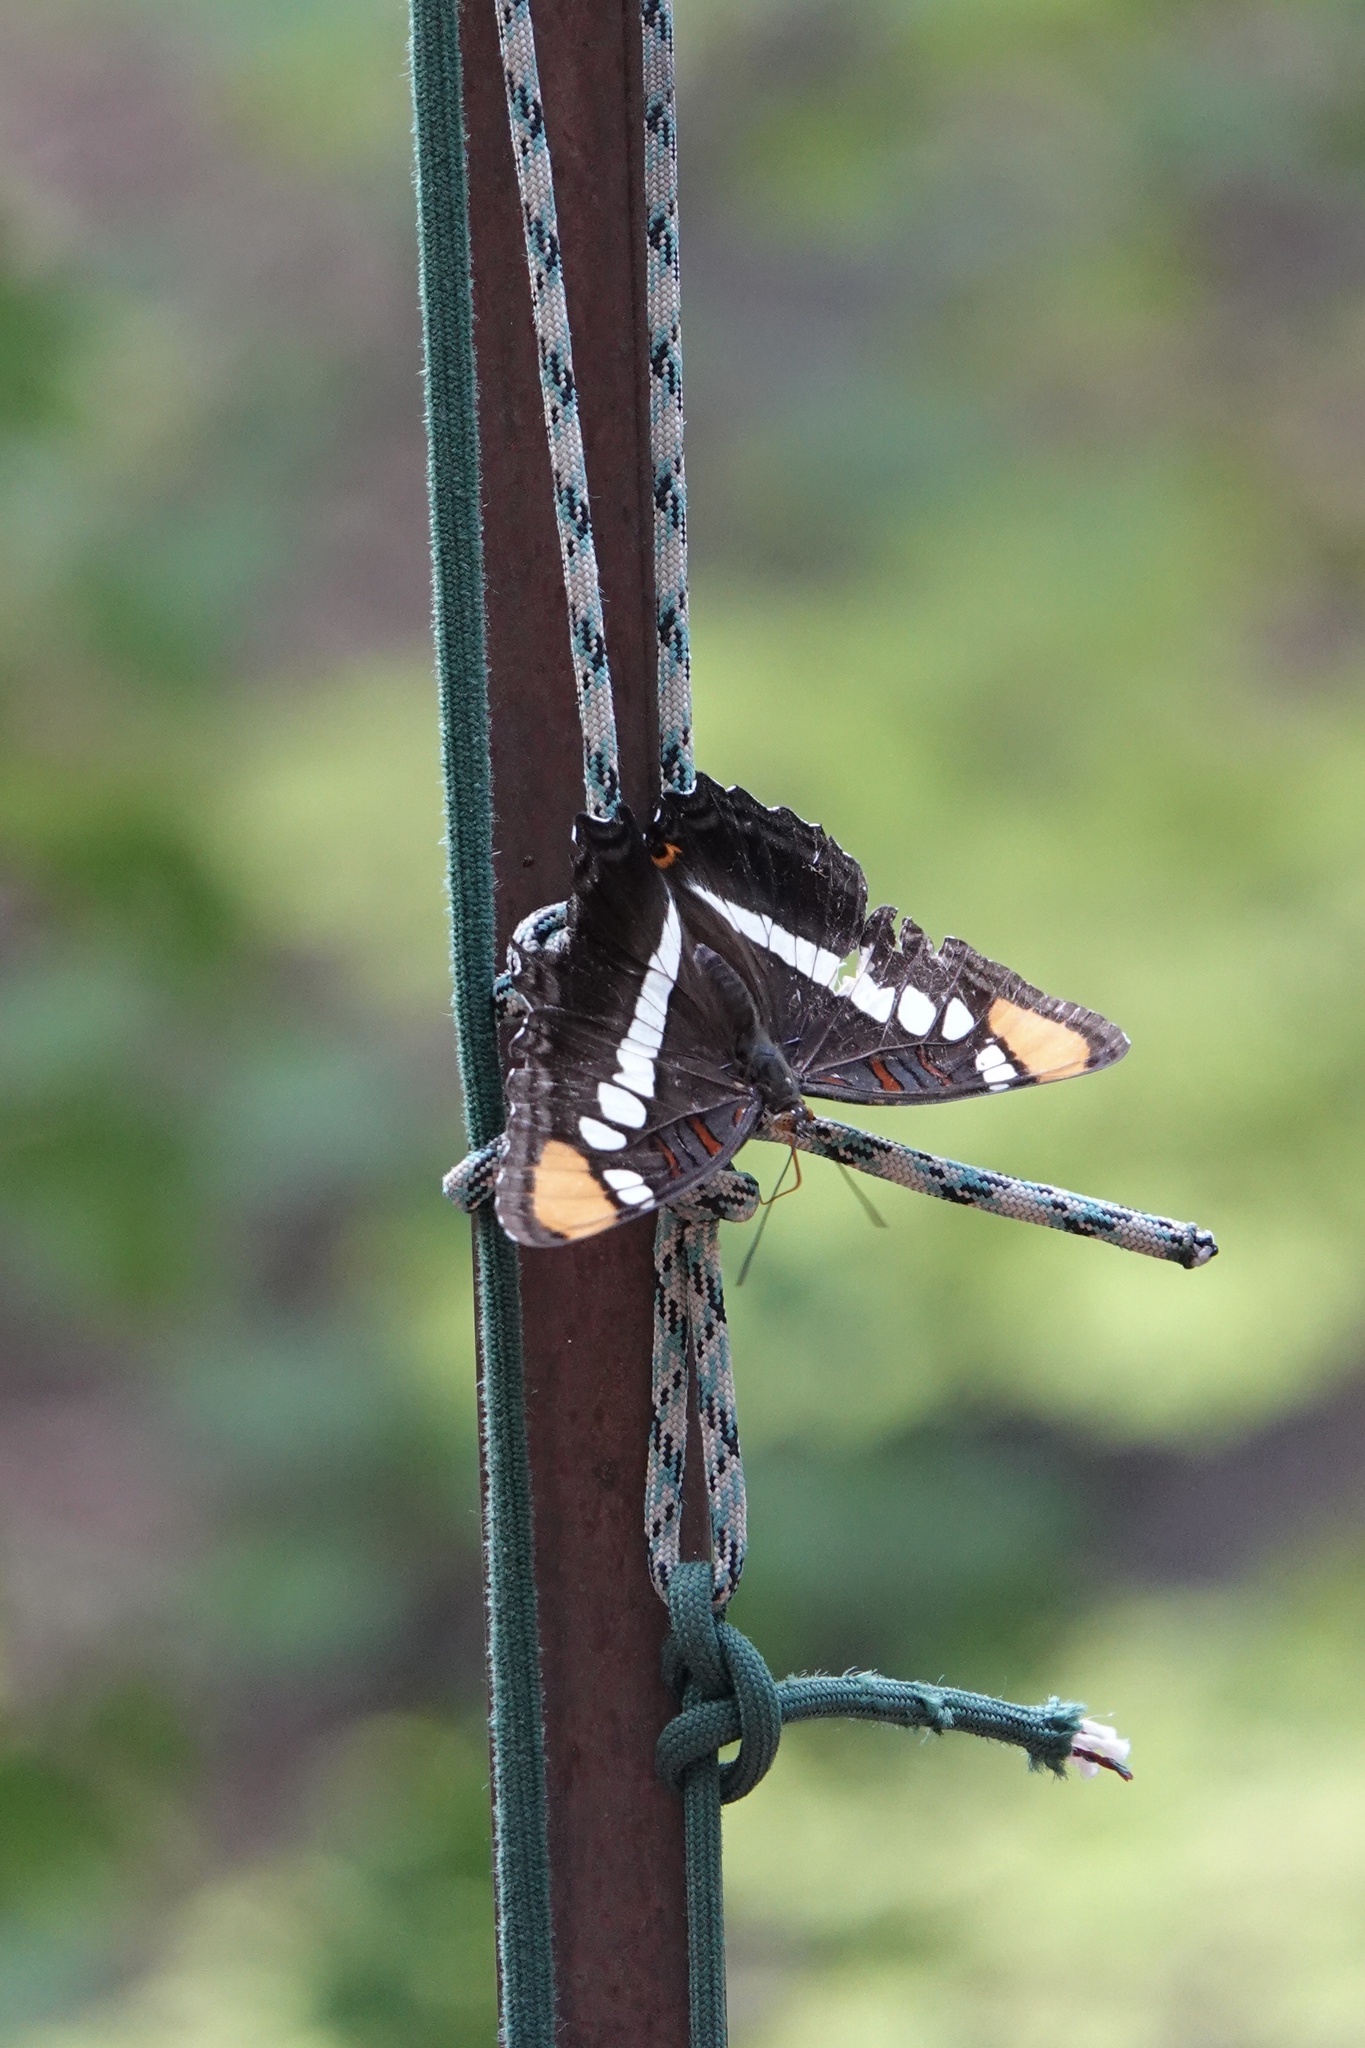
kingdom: Animalia
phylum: Arthropoda
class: Insecta
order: Lepidoptera
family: Nymphalidae
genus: Limenitis
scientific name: Limenitis bredowii
